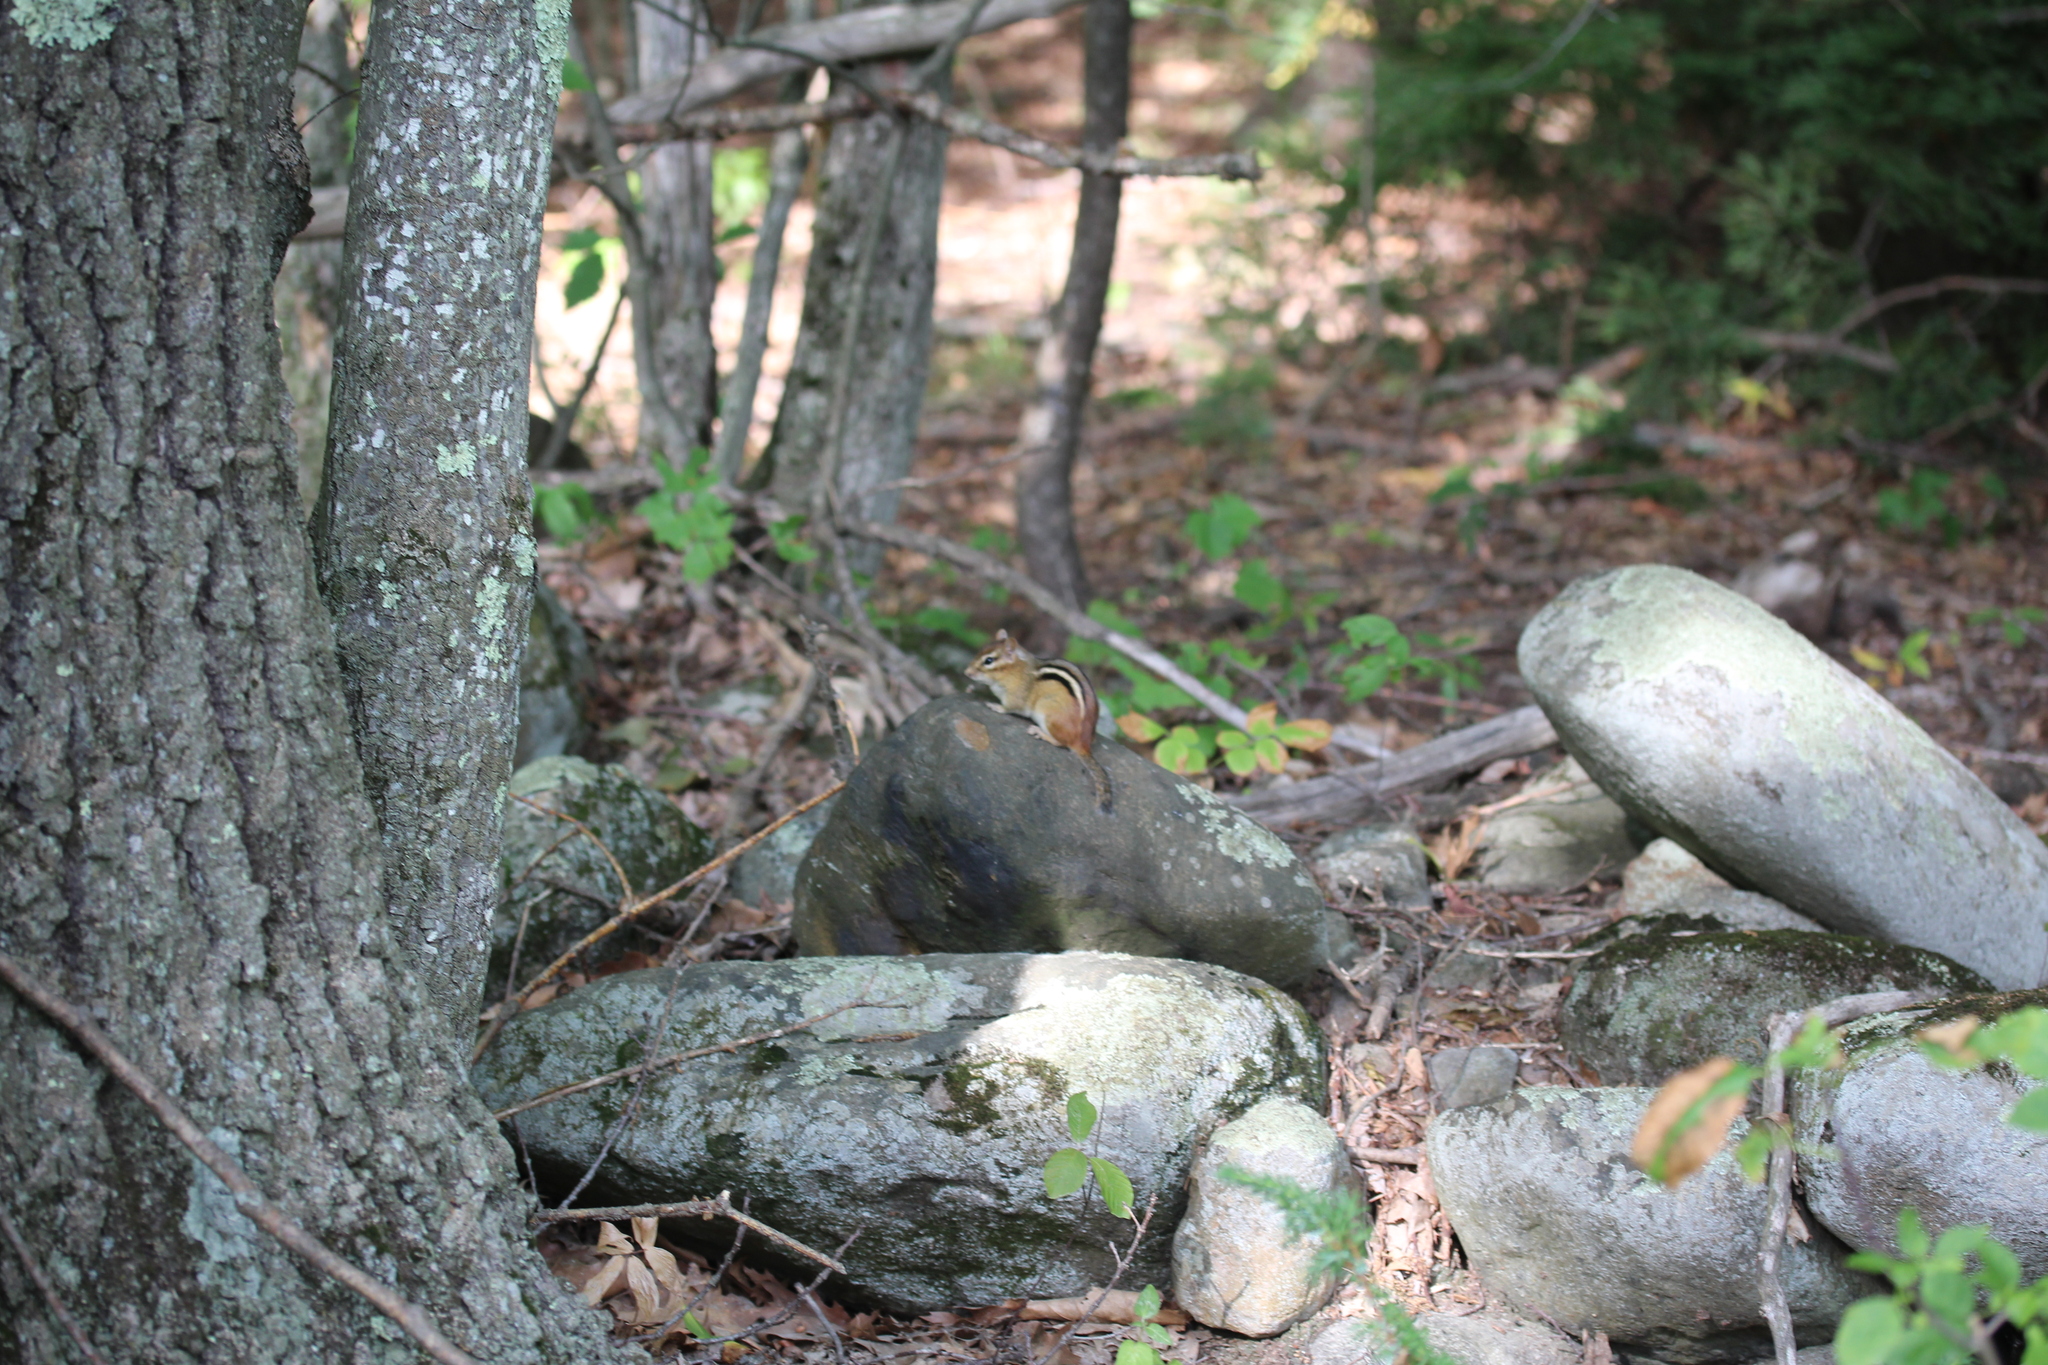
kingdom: Animalia
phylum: Chordata
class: Mammalia
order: Rodentia
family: Sciuridae
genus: Tamias
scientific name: Tamias striatus
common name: Eastern chipmunk
